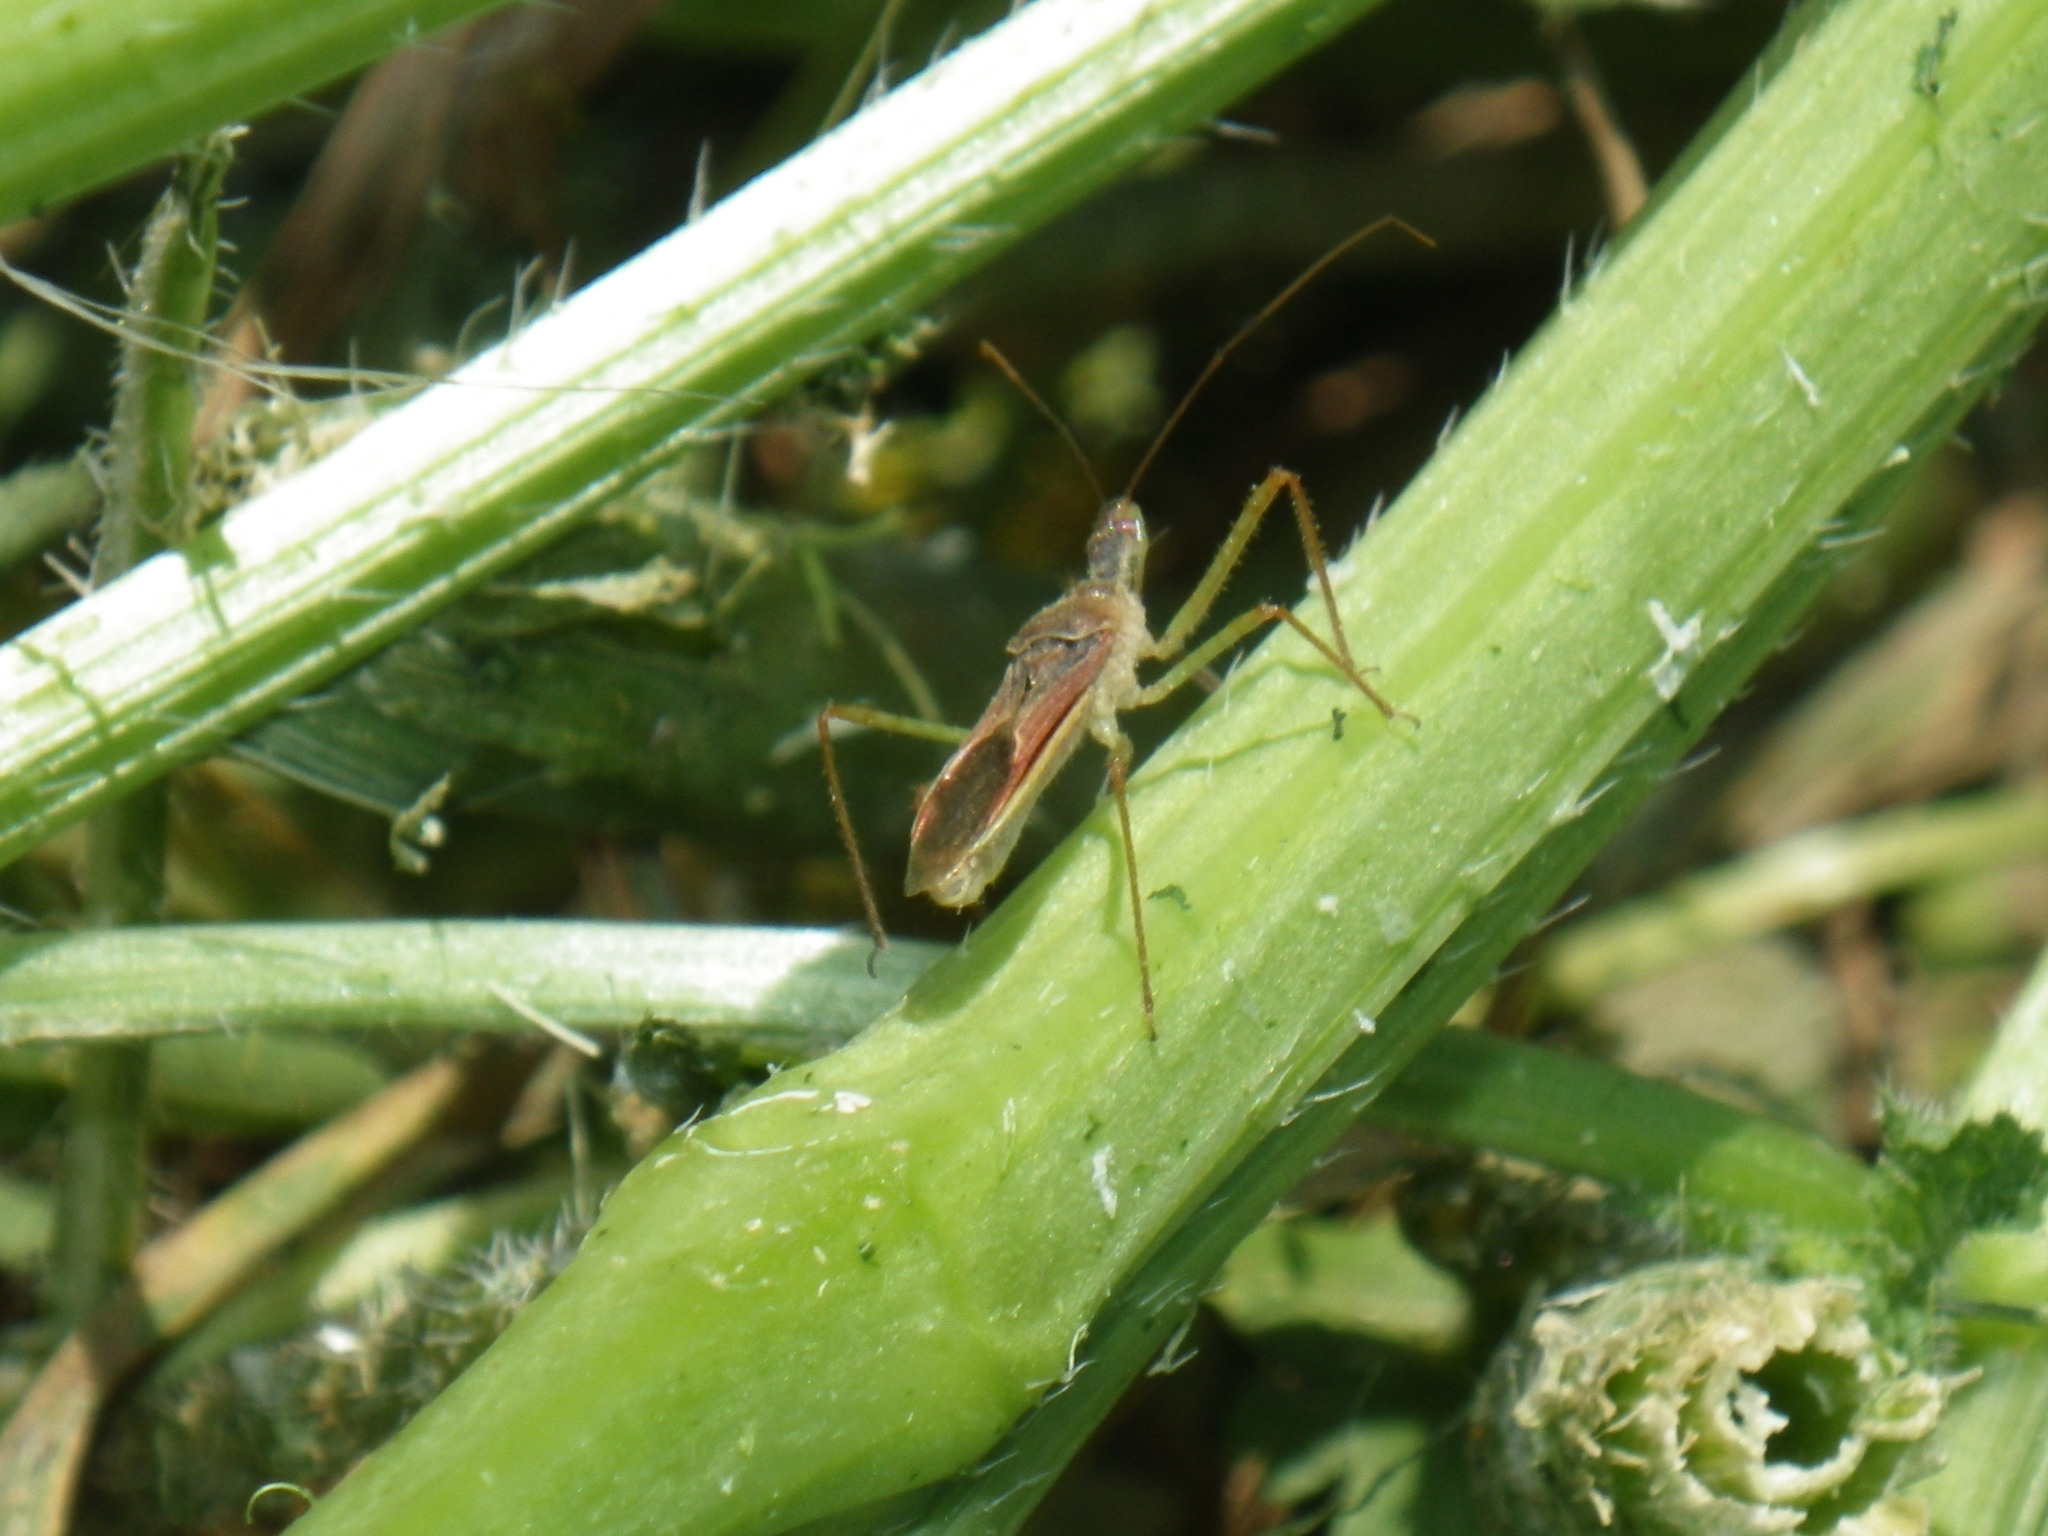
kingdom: Animalia
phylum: Arthropoda
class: Insecta
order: Hemiptera
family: Reduviidae
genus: Zelus
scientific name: Zelus renardii
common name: Assassin bug
